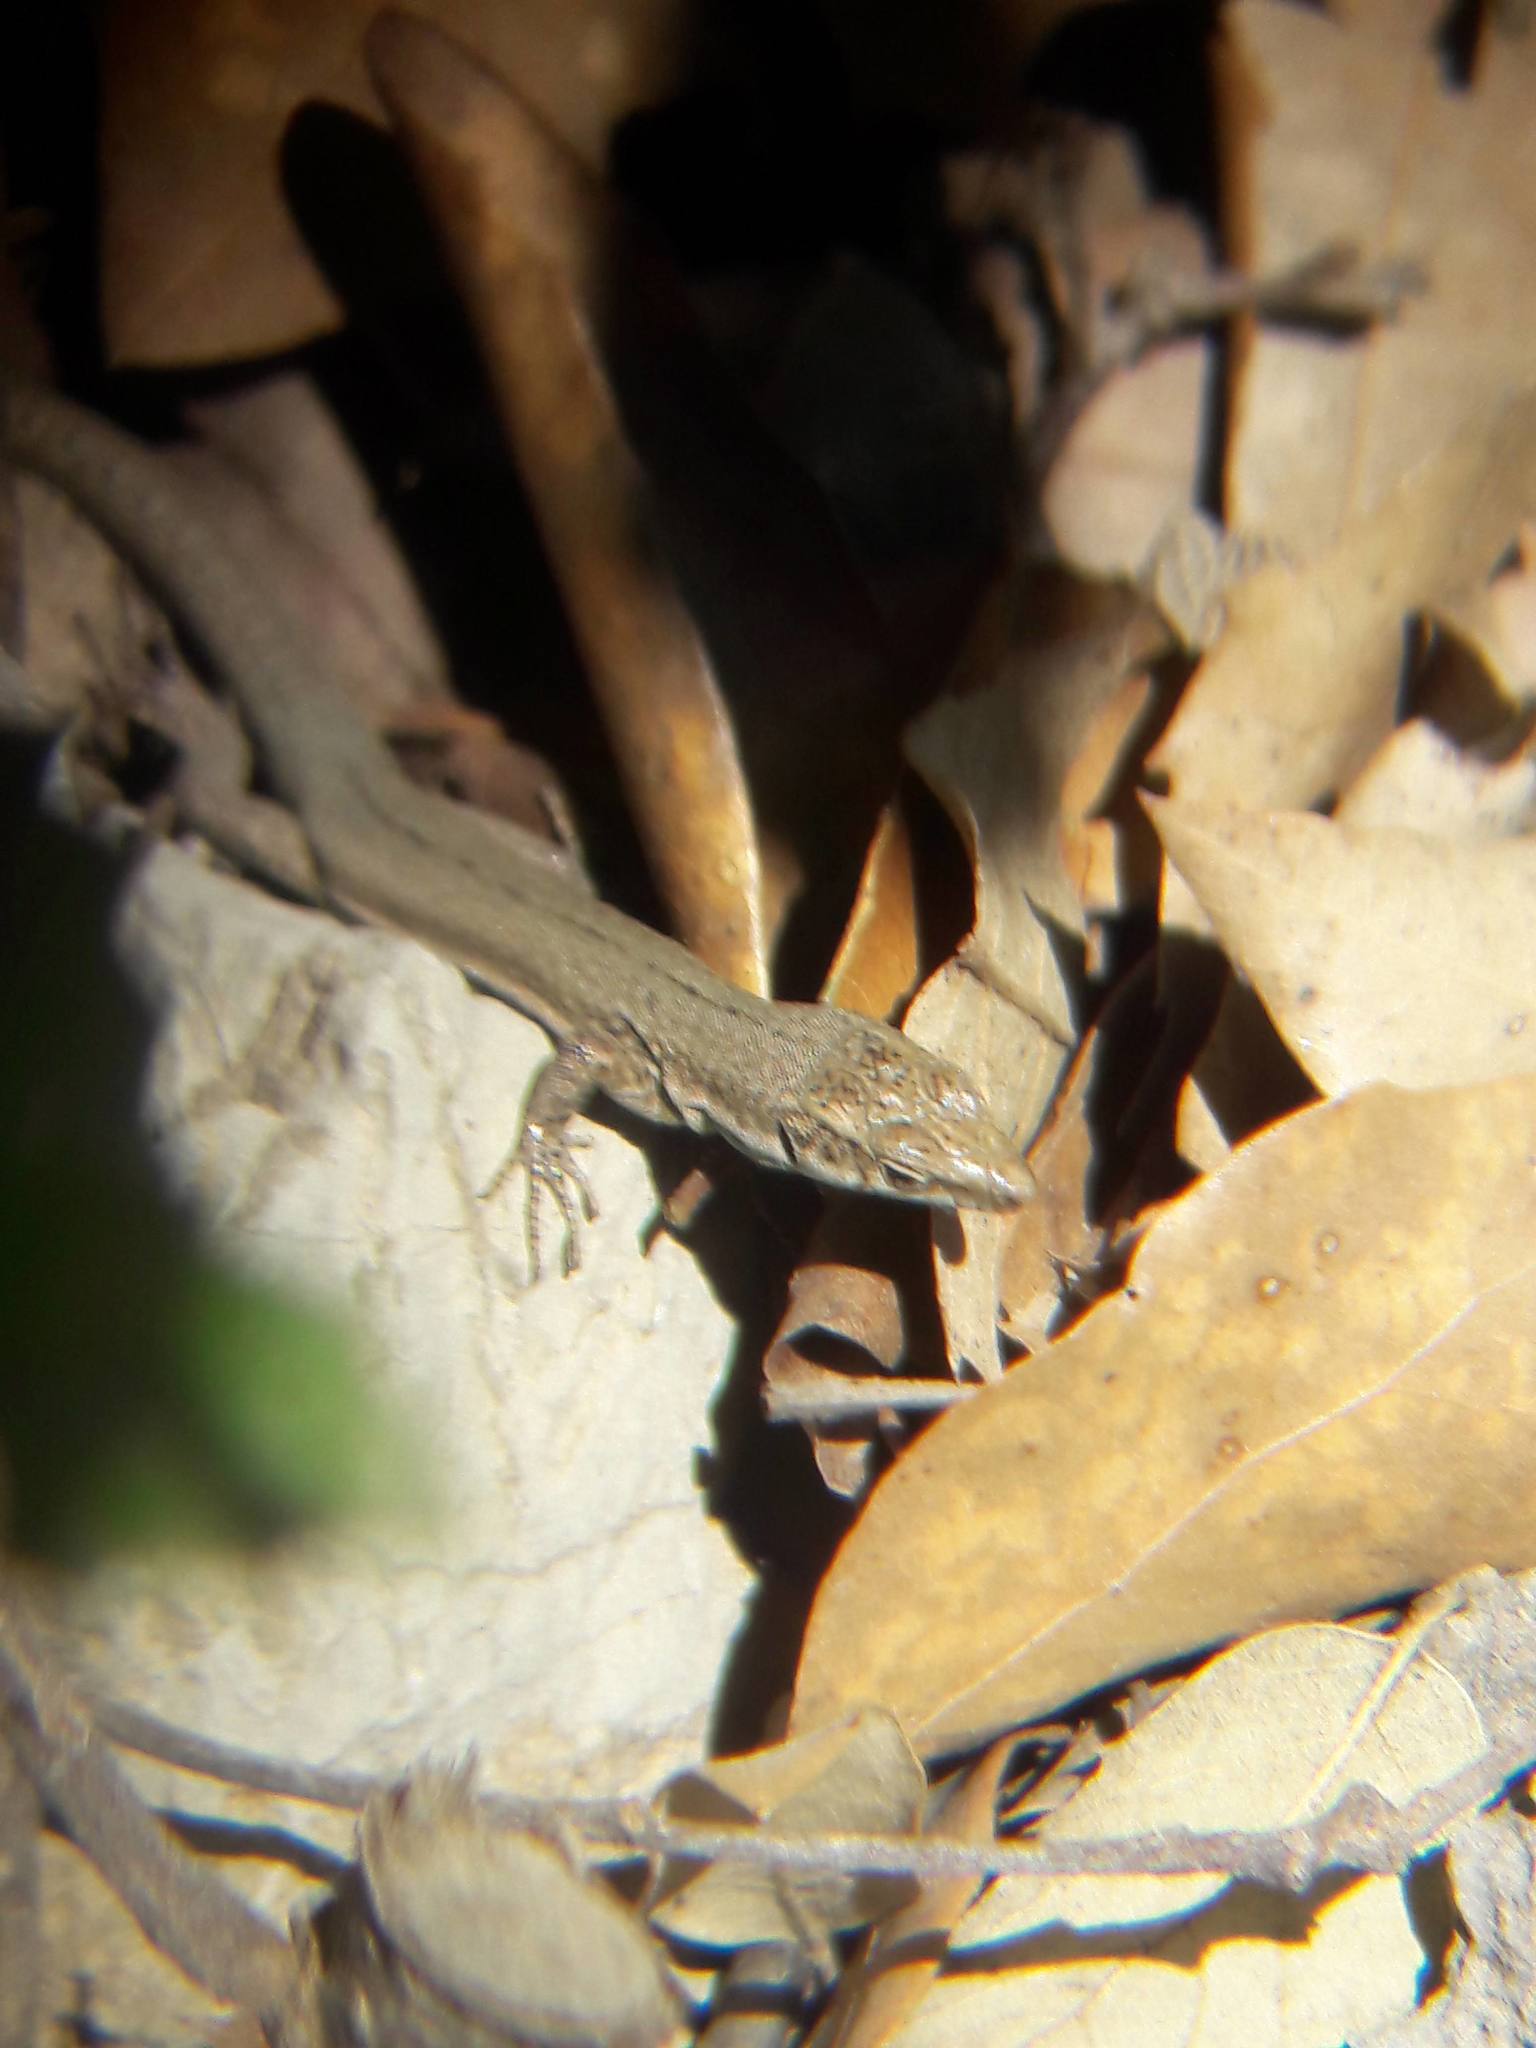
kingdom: Animalia
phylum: Chordata
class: Squamata
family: Lacertidae
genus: Podarcis
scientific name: Podarcis liolepis
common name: Catalonian wall lizard
